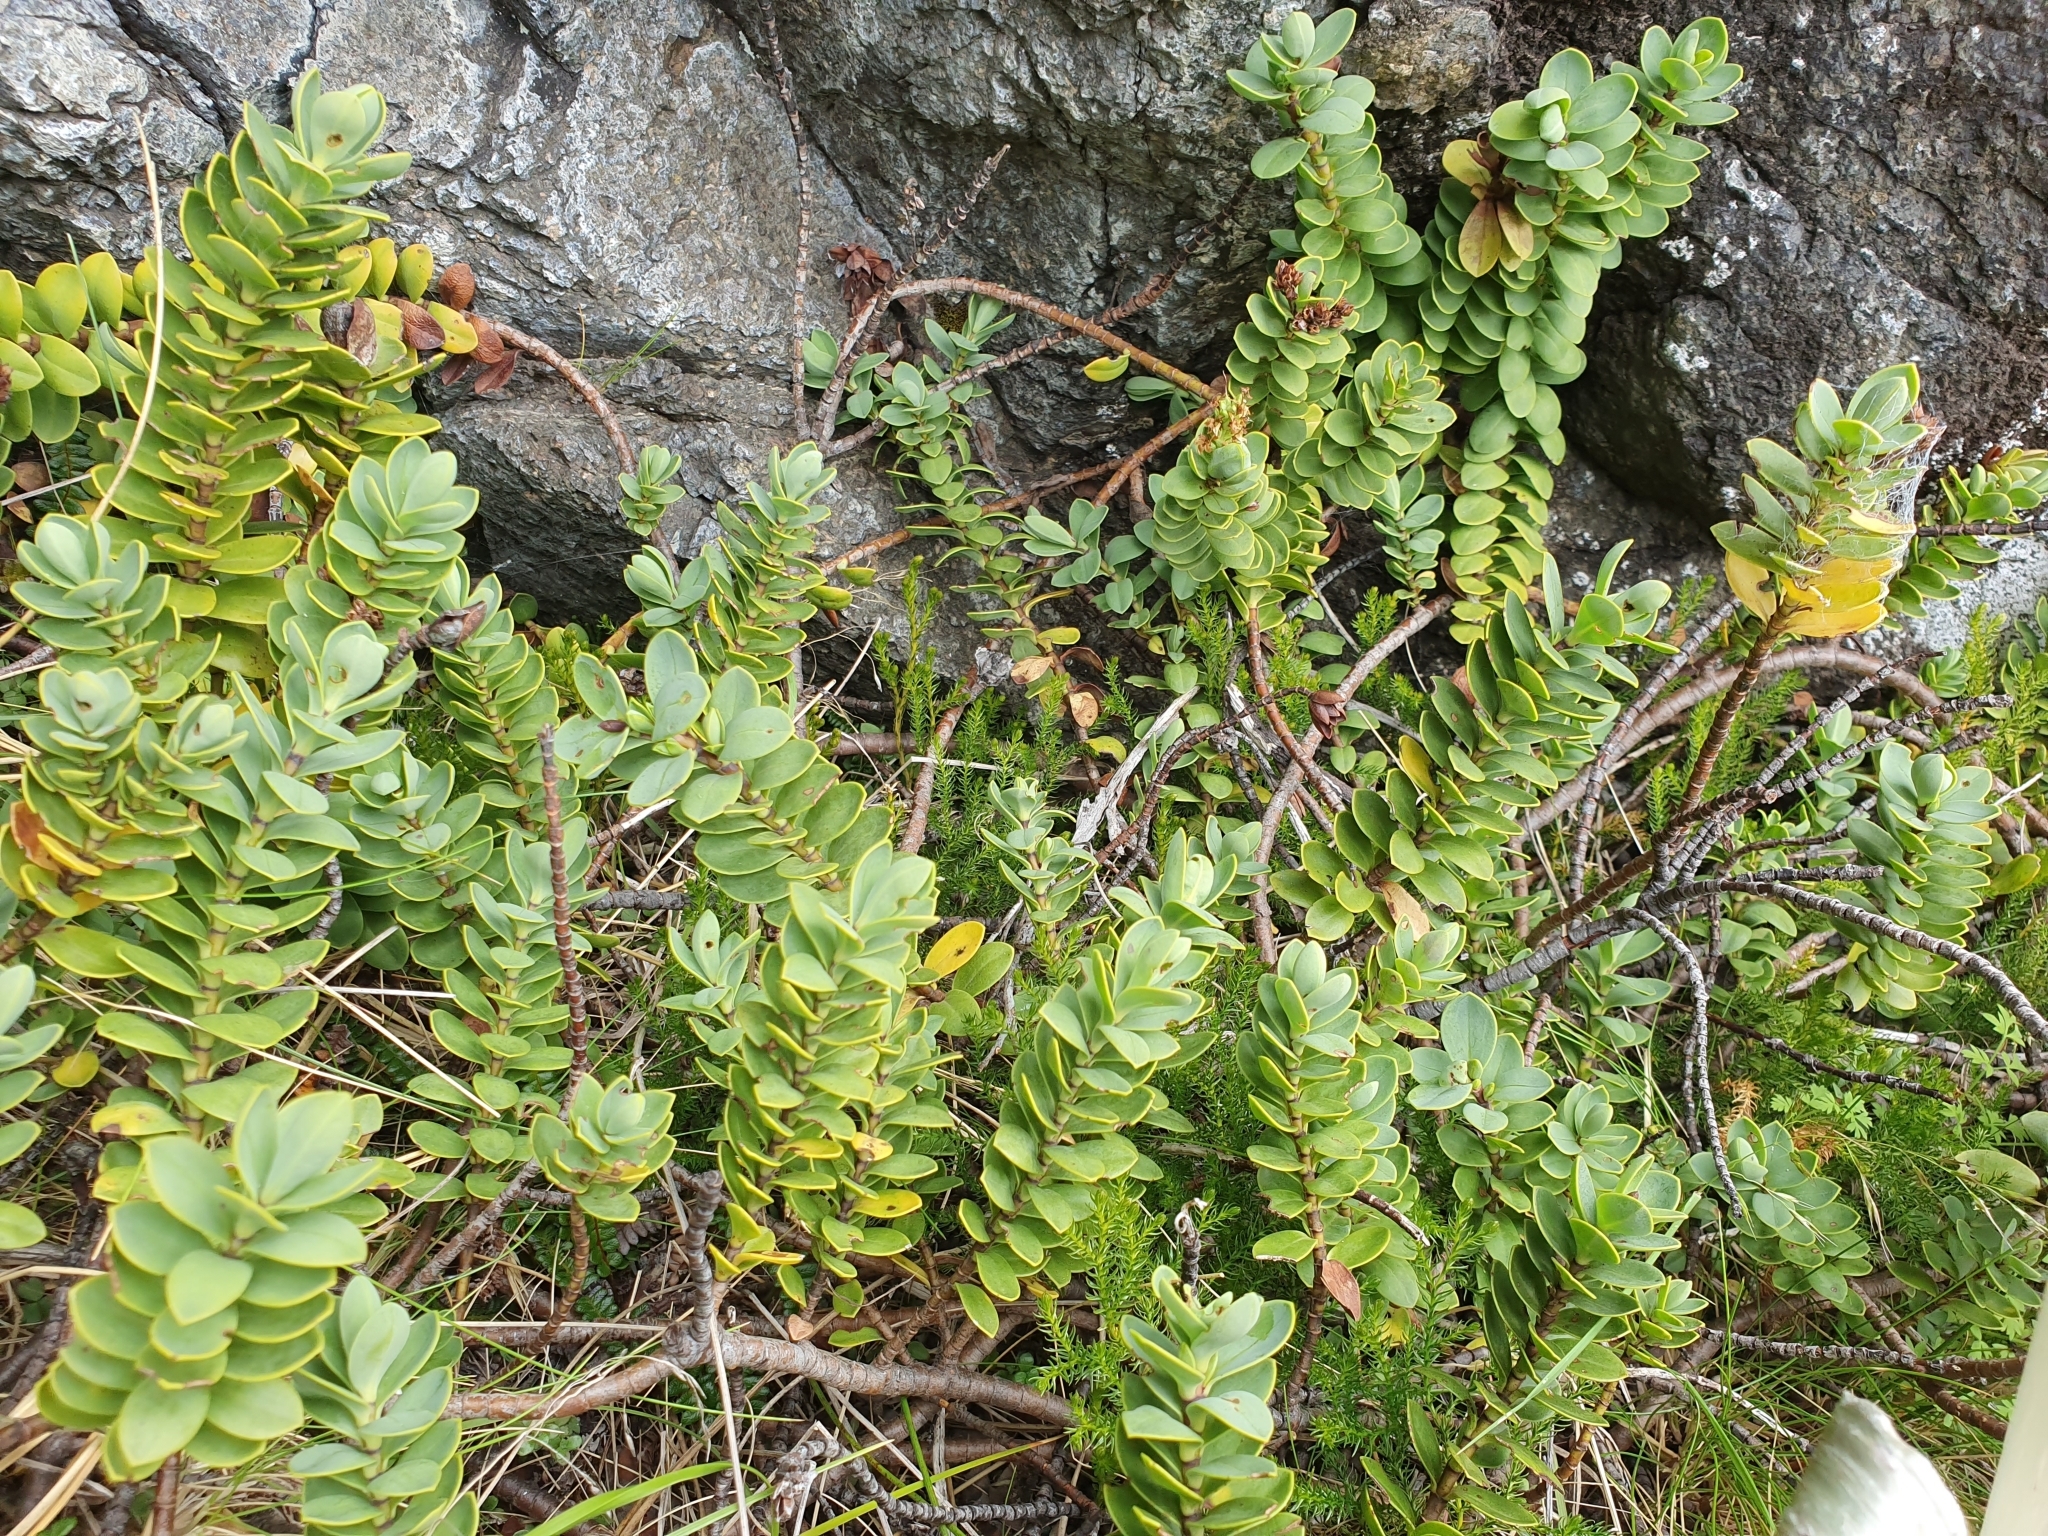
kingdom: Plantae
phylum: Tracheophyta
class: Magnoliopsida
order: Lamiales
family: Plantaginaceae
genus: Veronica
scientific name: Veronica dilatata
